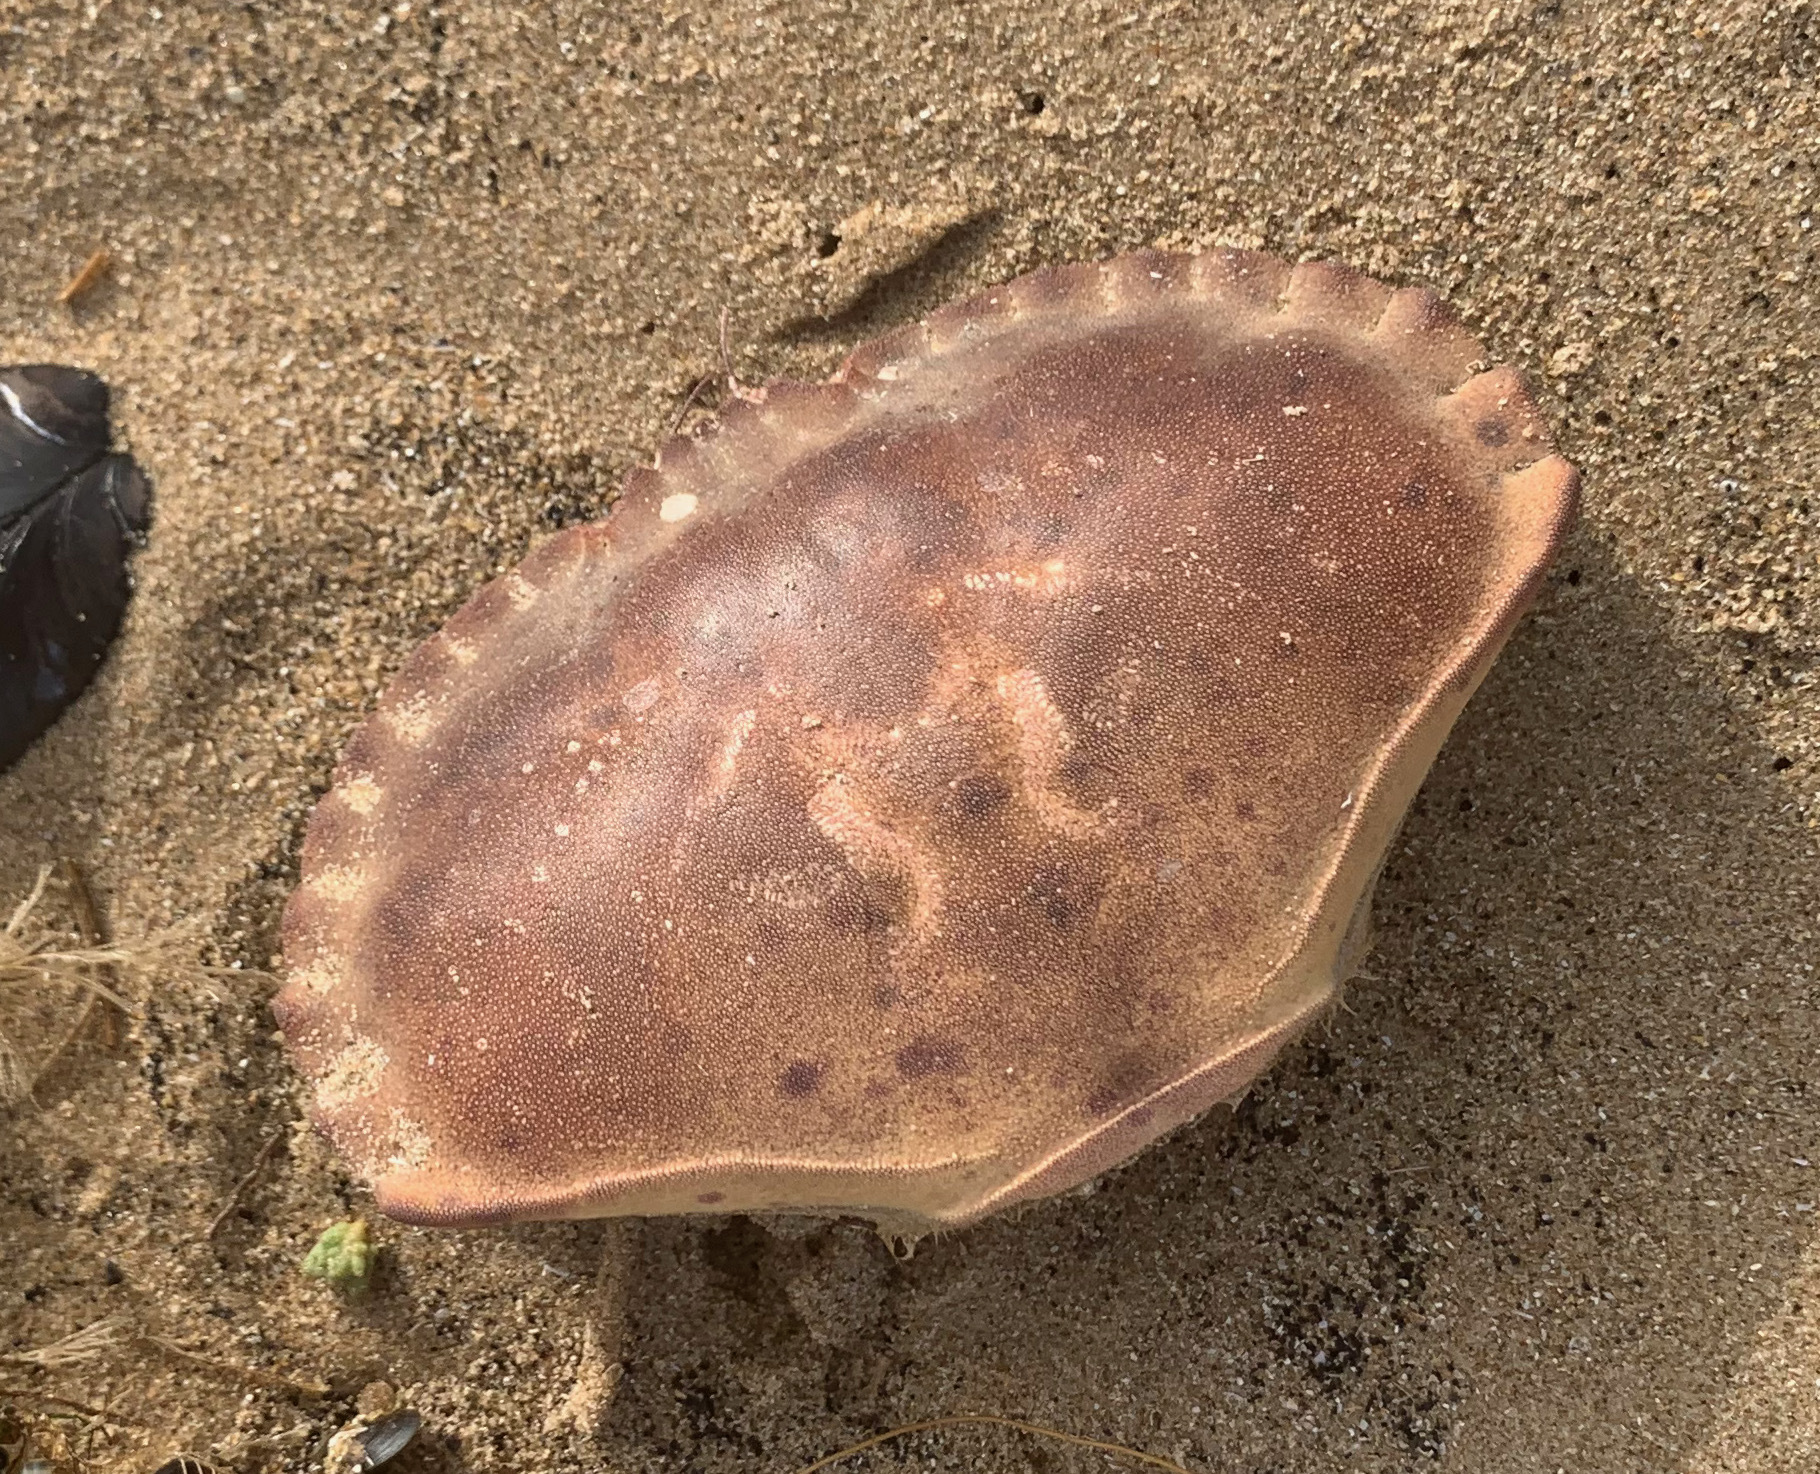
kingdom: Animalia
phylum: Arthropoda
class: Malacostraca
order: Decapoda
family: Cancridae
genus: Cancer
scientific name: Cancer pagurus
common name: Edible crab
